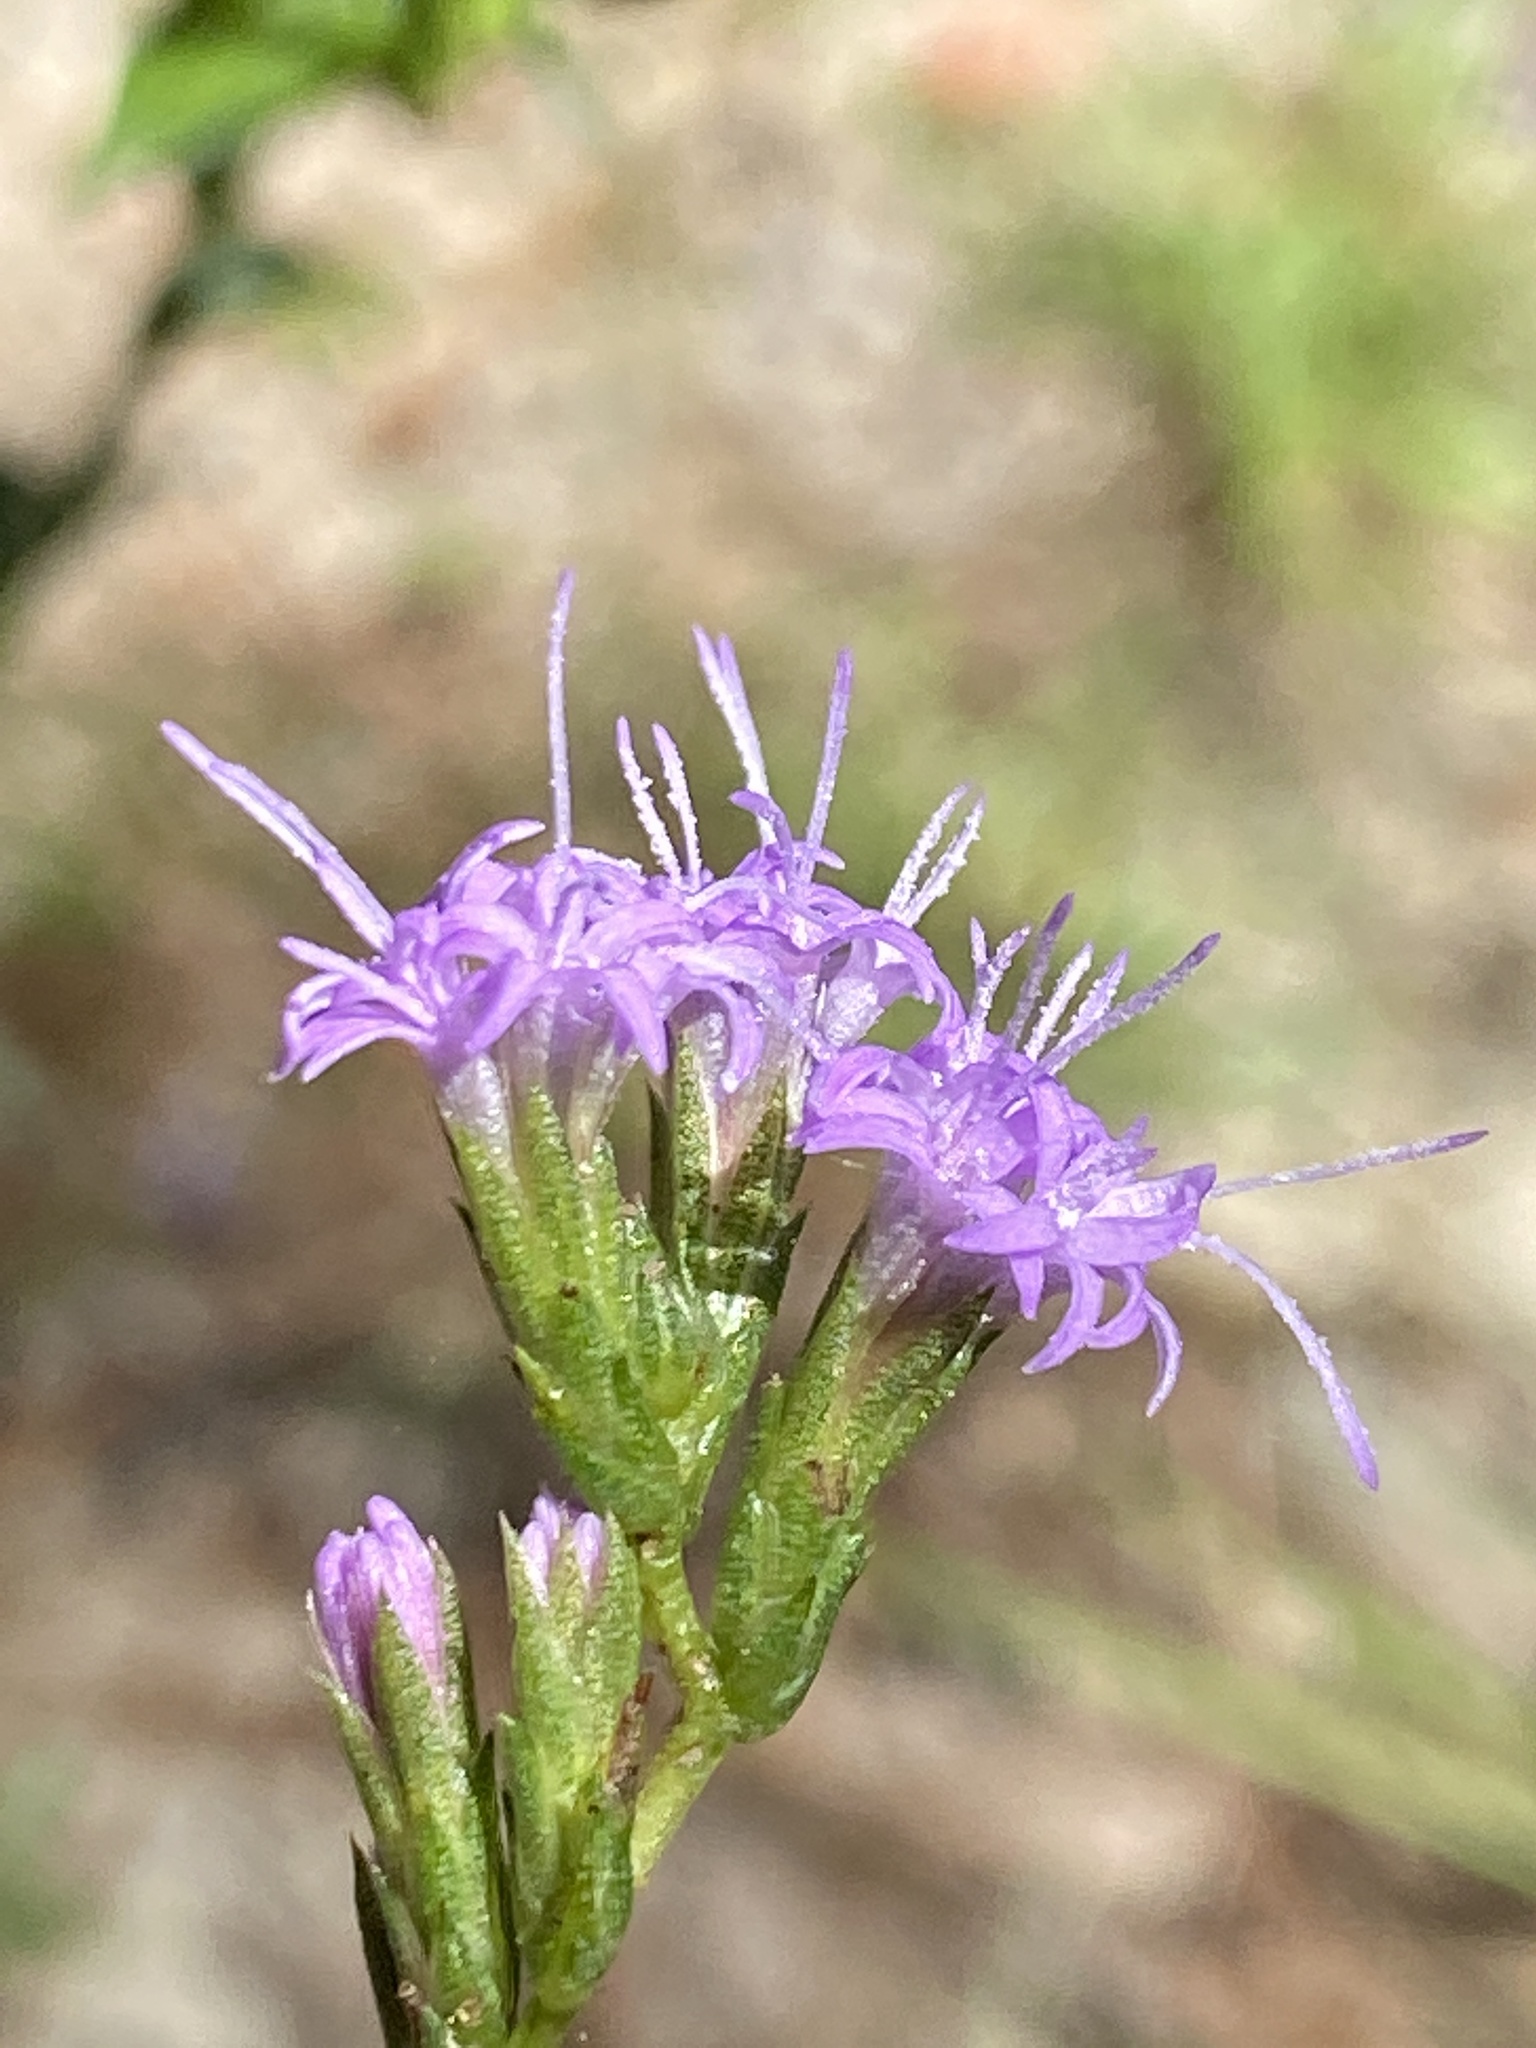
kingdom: Plantae
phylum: Tracheophyta
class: Magnoliopsida
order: Asterales
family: Asteraceae
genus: Liatris
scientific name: Liatris cokeri
